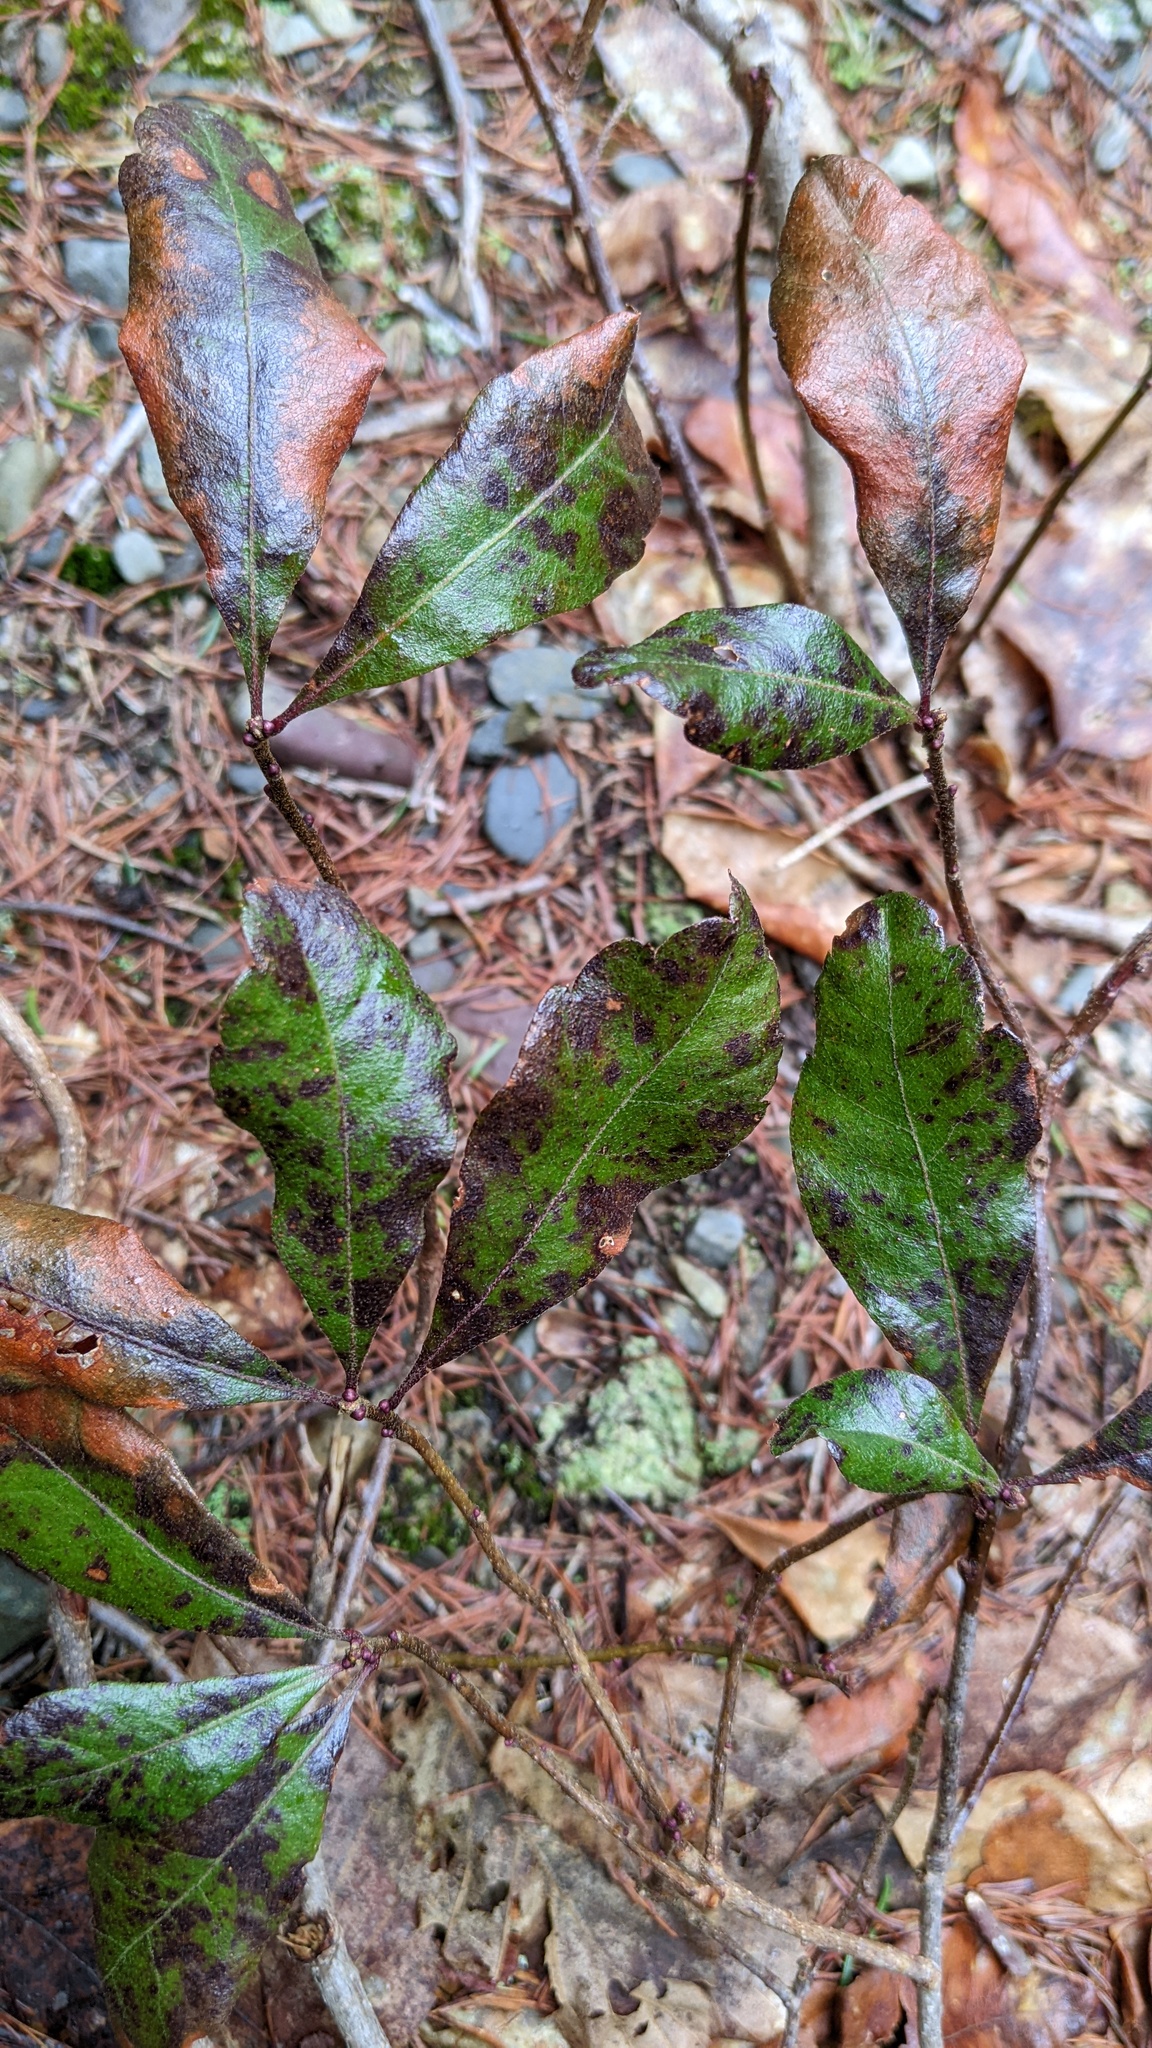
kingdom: Plantae
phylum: Tracheophyta
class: Magnoliopsida
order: Fagales
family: Myricaceae
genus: Morella
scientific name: Morella pensylvanica
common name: Northern bayberry
